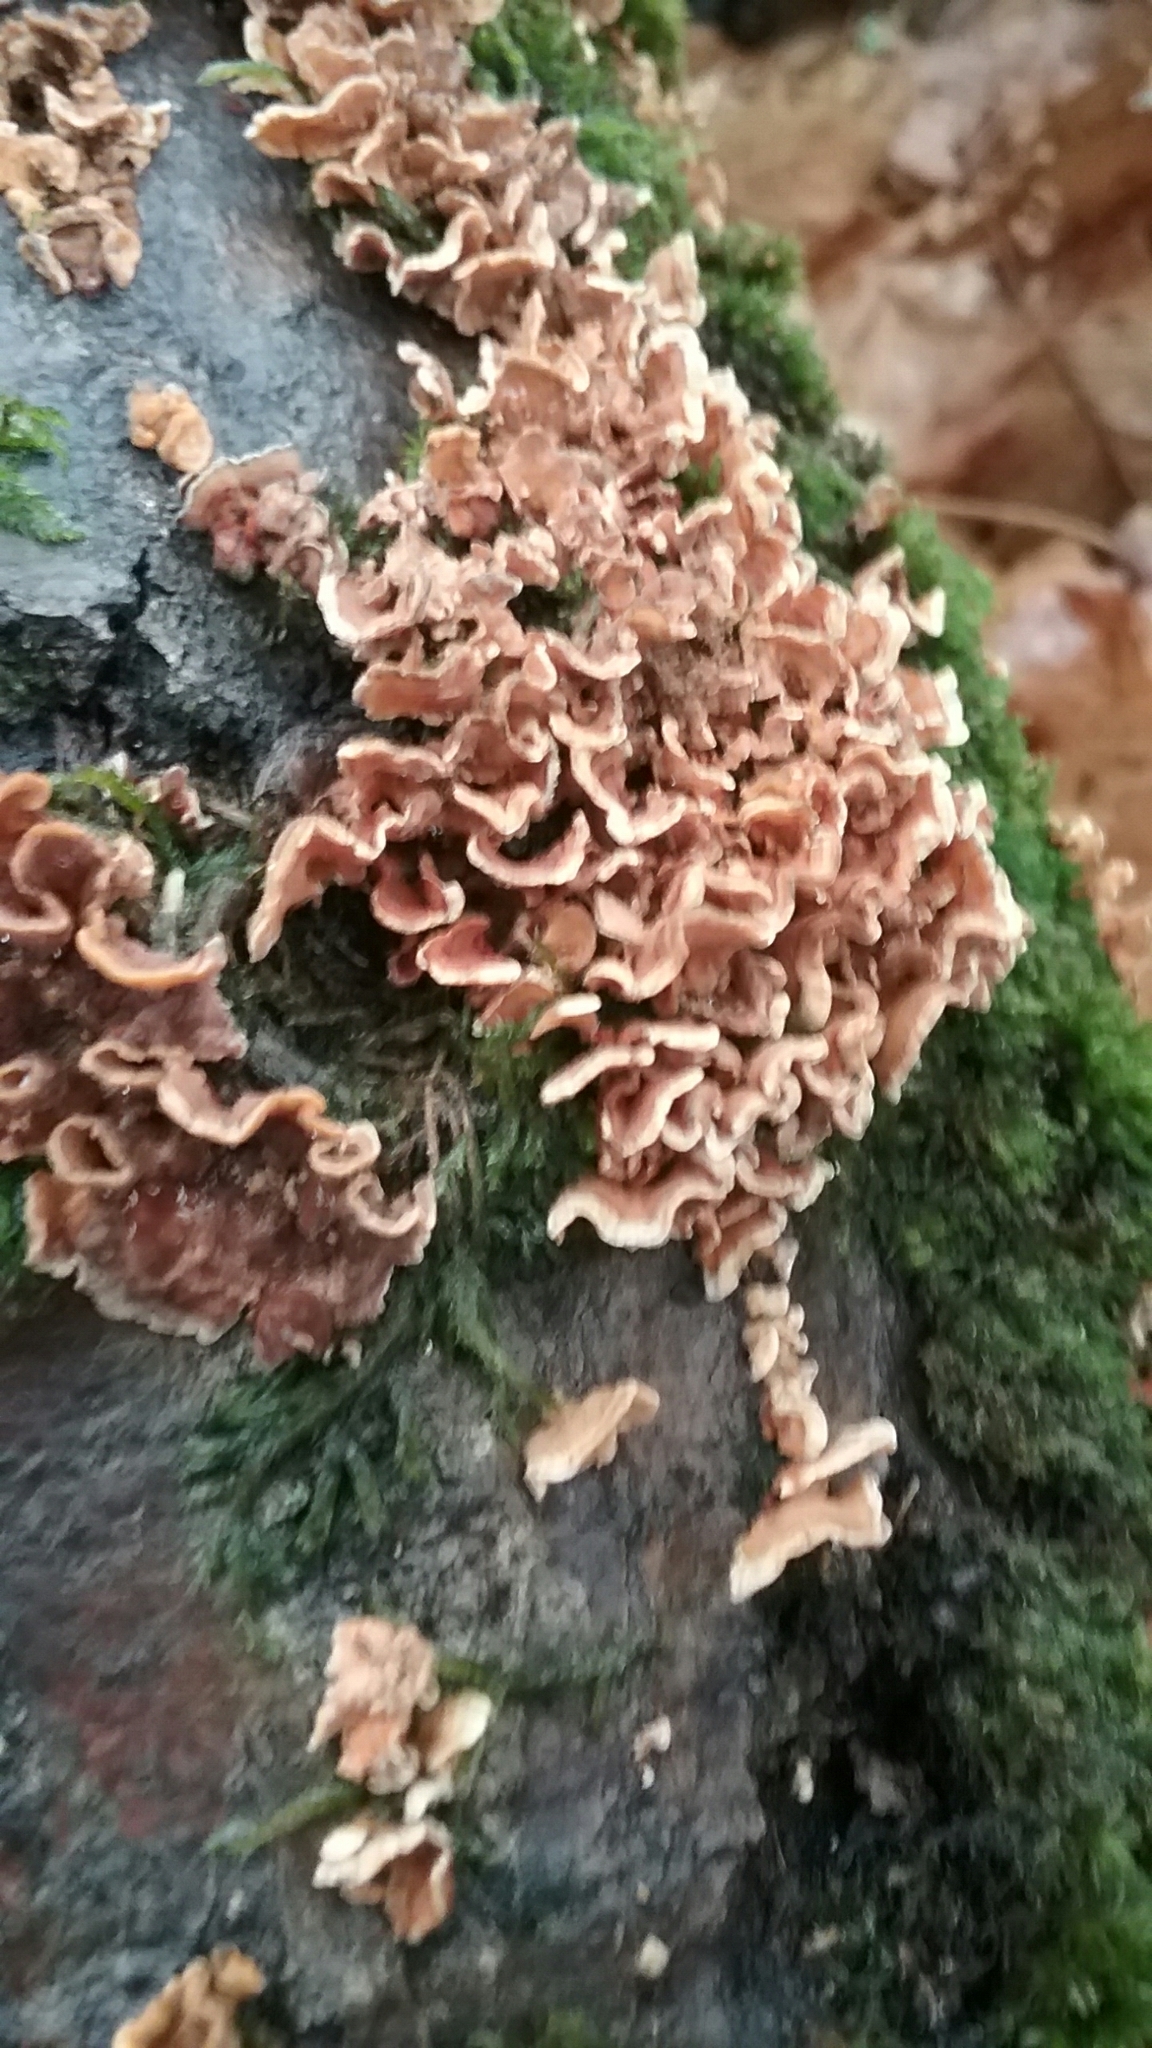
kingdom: Fungi
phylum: Basidiomycota
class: Agaricomycetes
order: Russulales
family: Stereaceae
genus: Stereum
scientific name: Stereum complicatum
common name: Crowded parchment
